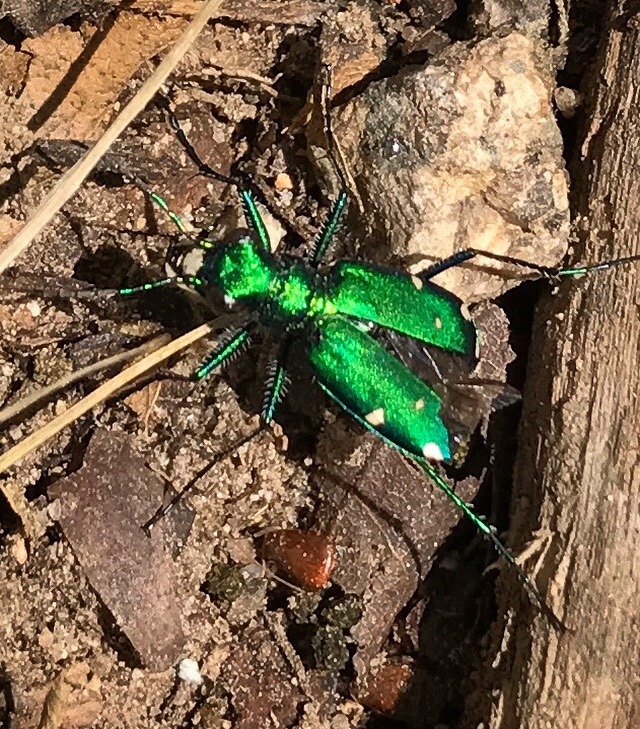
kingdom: Animalia
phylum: Arthropoda
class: Insecta
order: Coleoptera
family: Carabidae
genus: Cicindela
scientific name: Cicindela sexguttata
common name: Six-spotted tiger beetle
